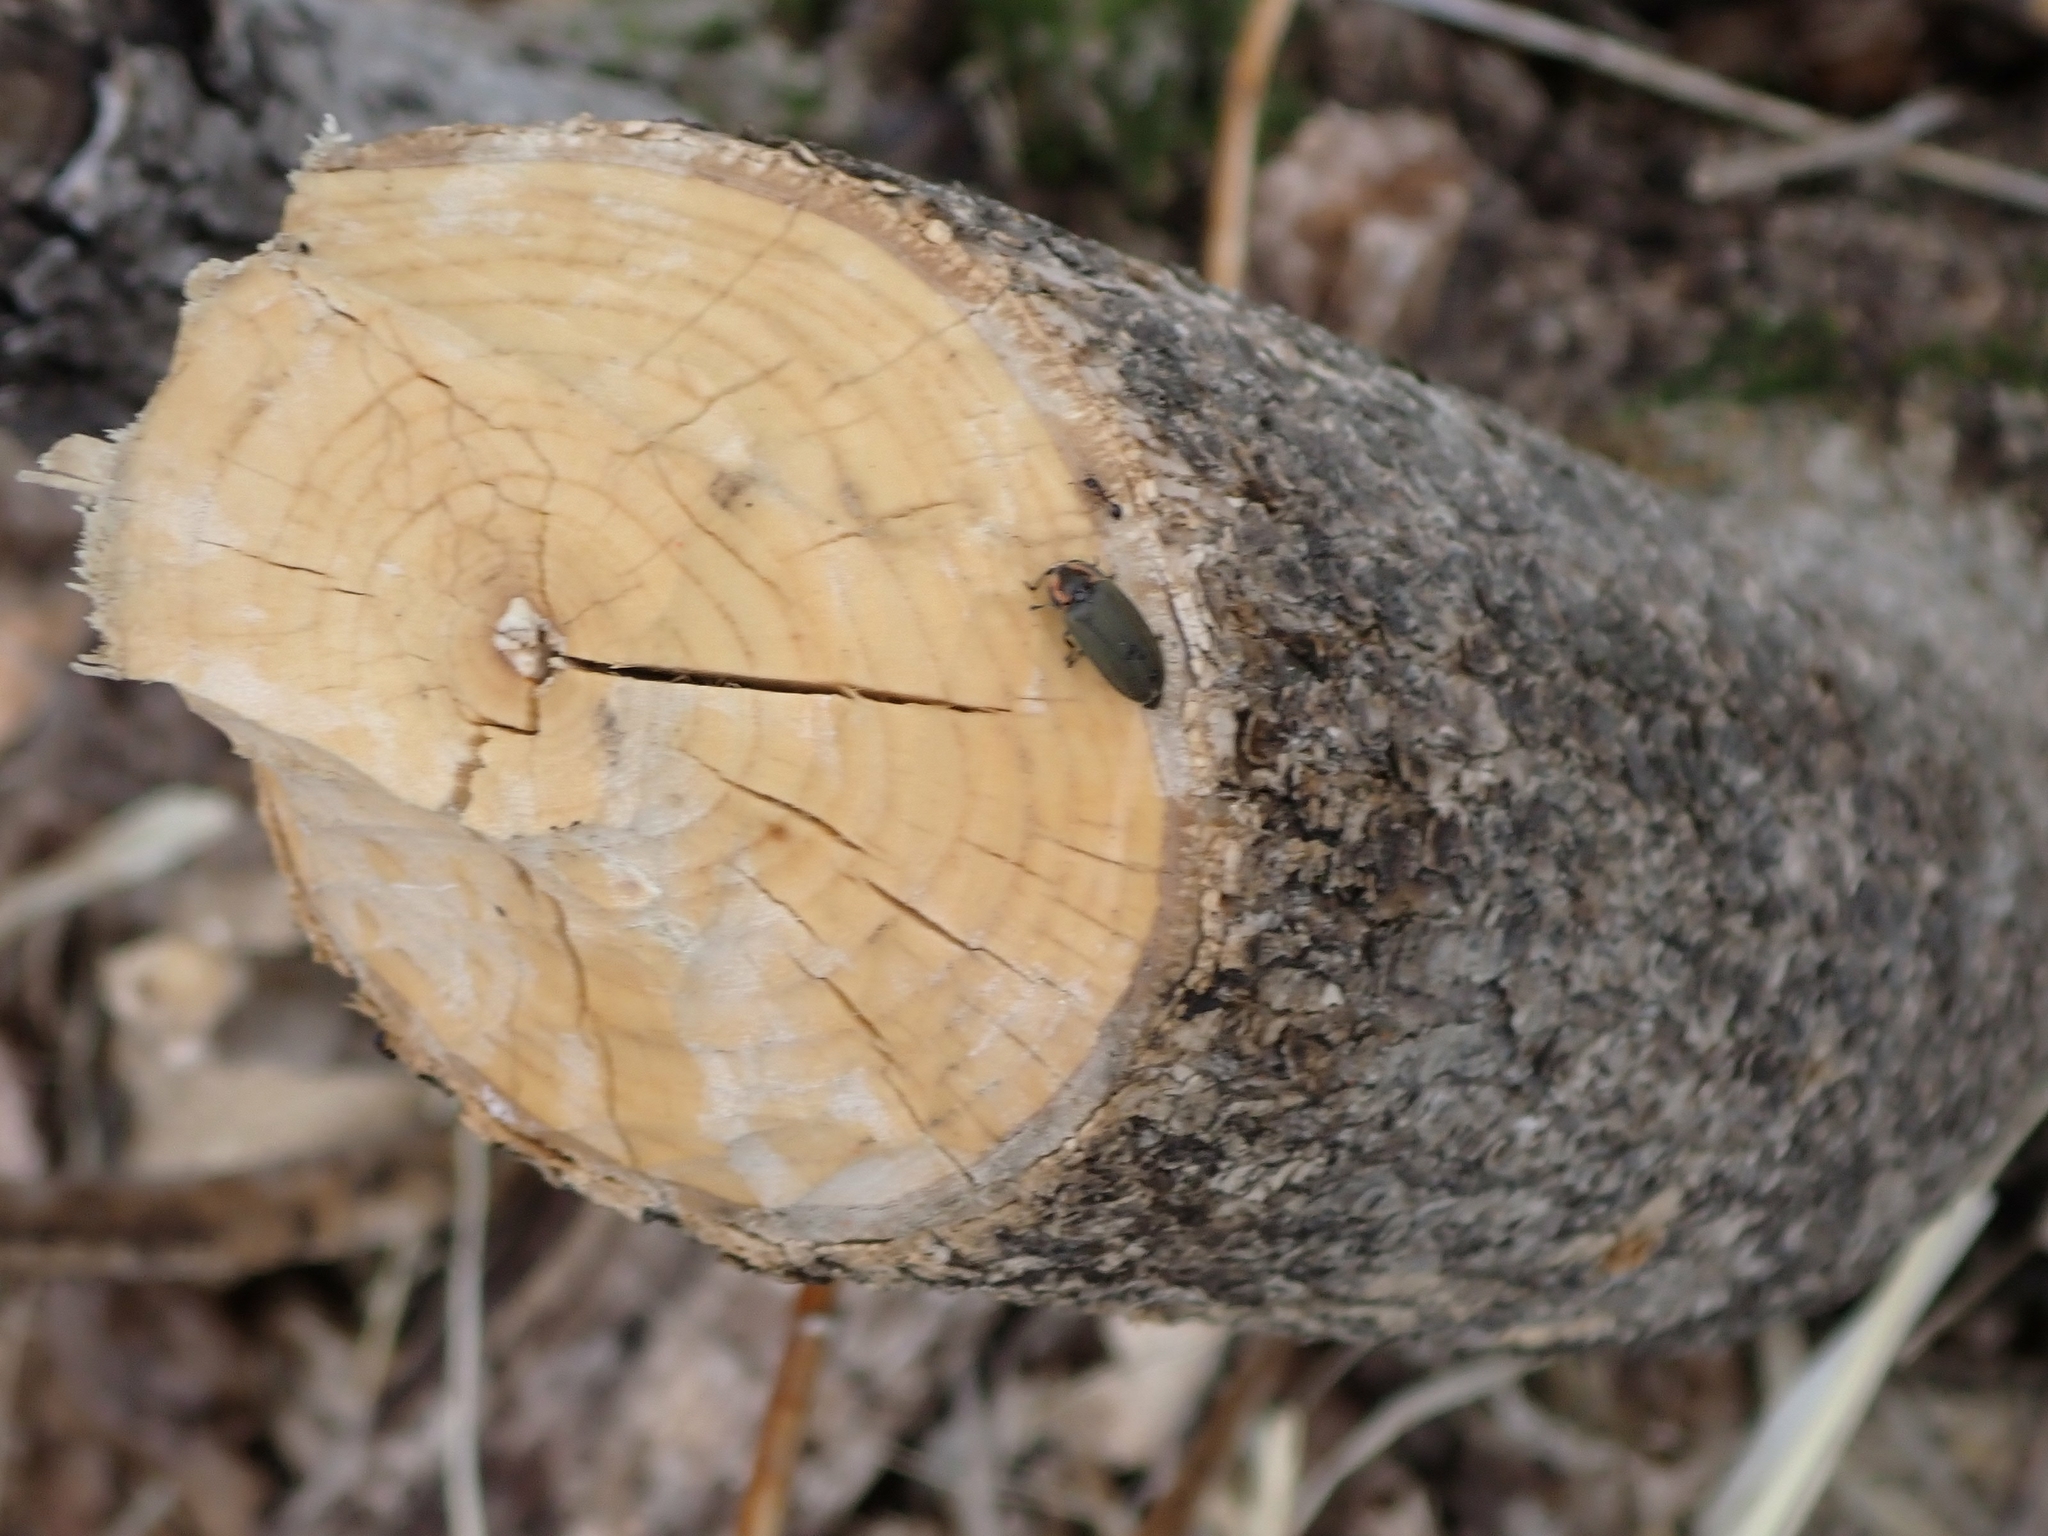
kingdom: Animalia
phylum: Chordata
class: Mammalia
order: Rodentia
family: Castoridae
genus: Castor
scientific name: Castor canadensis
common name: American beaver
